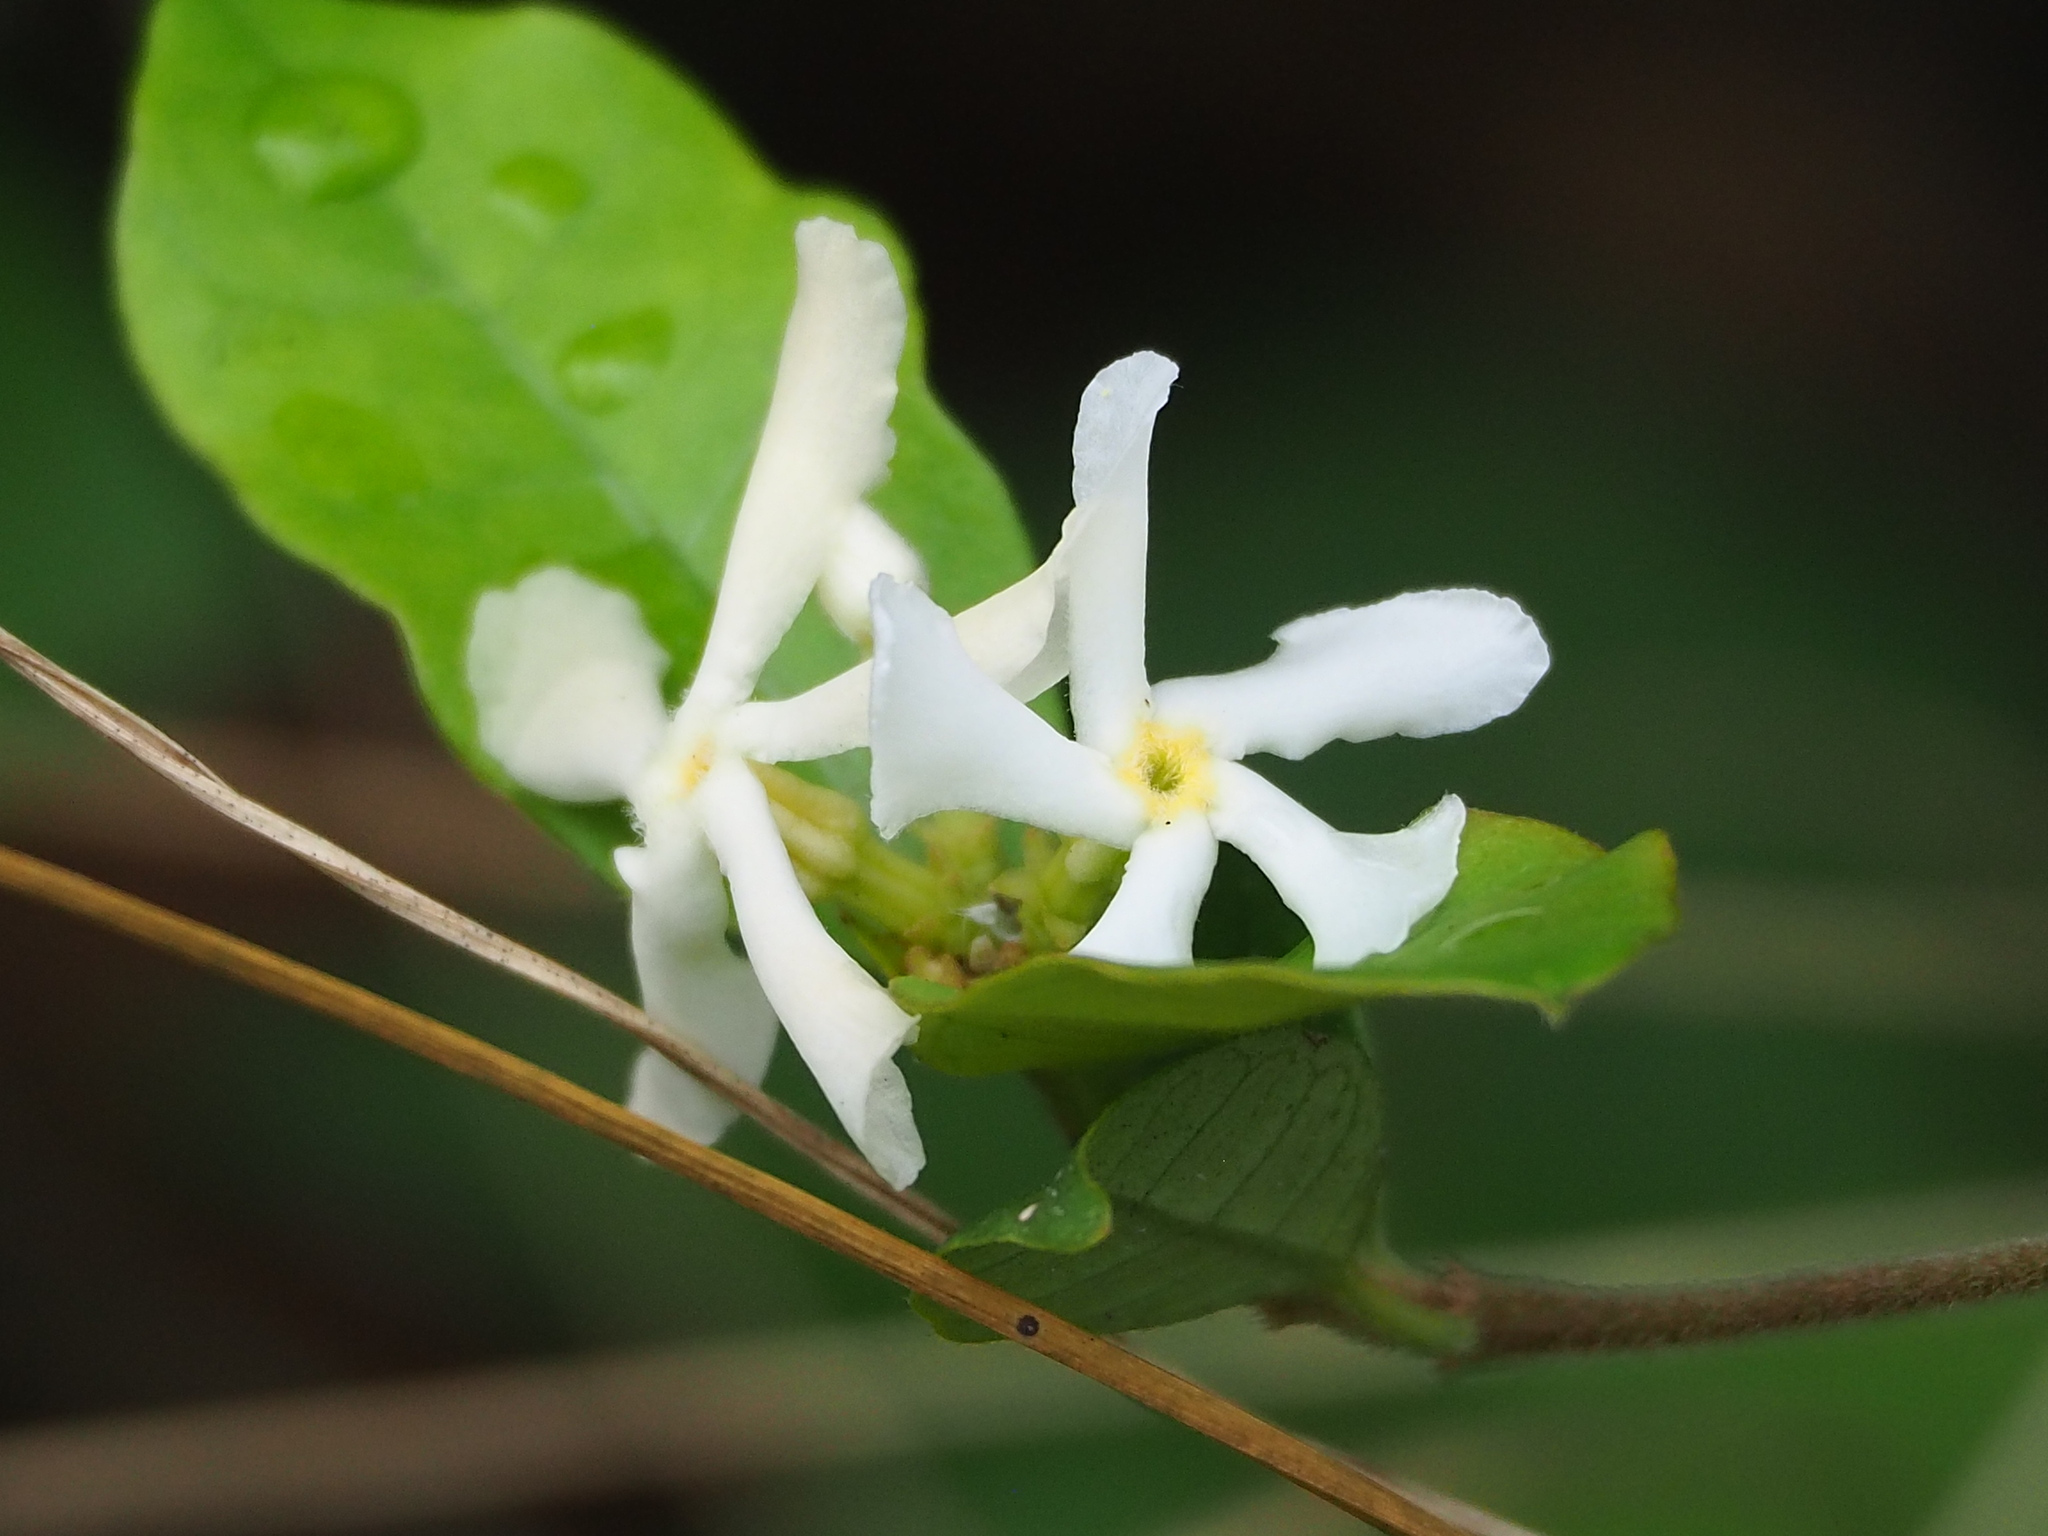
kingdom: Plantae
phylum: Tracheophyta
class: Magnoliopsida
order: Gentianales
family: Apocynaceae
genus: Trachelospermum
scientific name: Trachelospermum jasminoides
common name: Confederate jasmine
